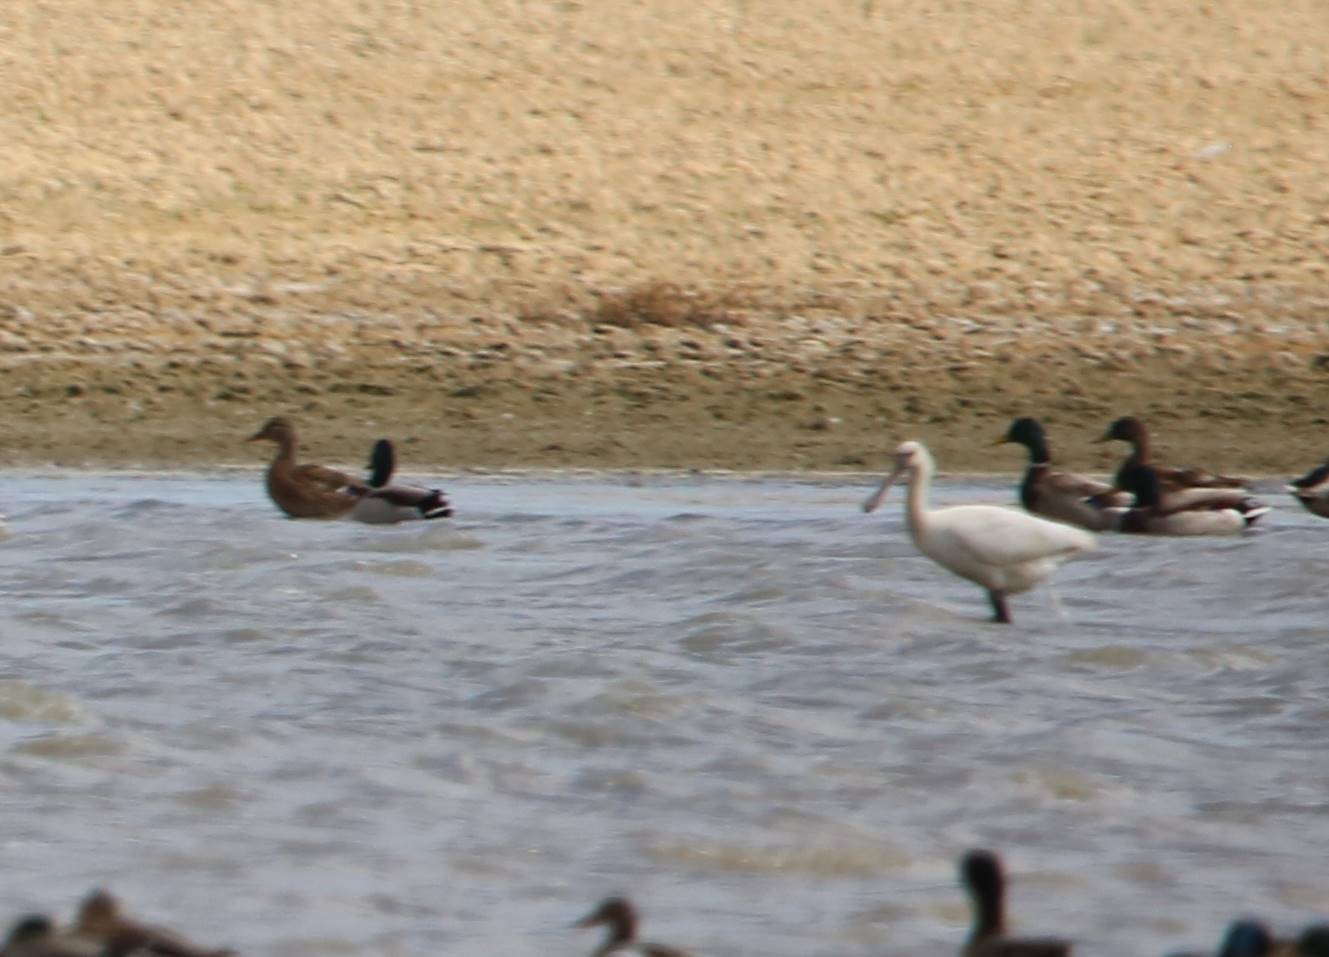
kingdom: Animalia
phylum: Chordata
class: Aves
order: Anseriformes
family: Anatidae
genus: Anas
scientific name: Anas platyrhynchos
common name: Mallard
